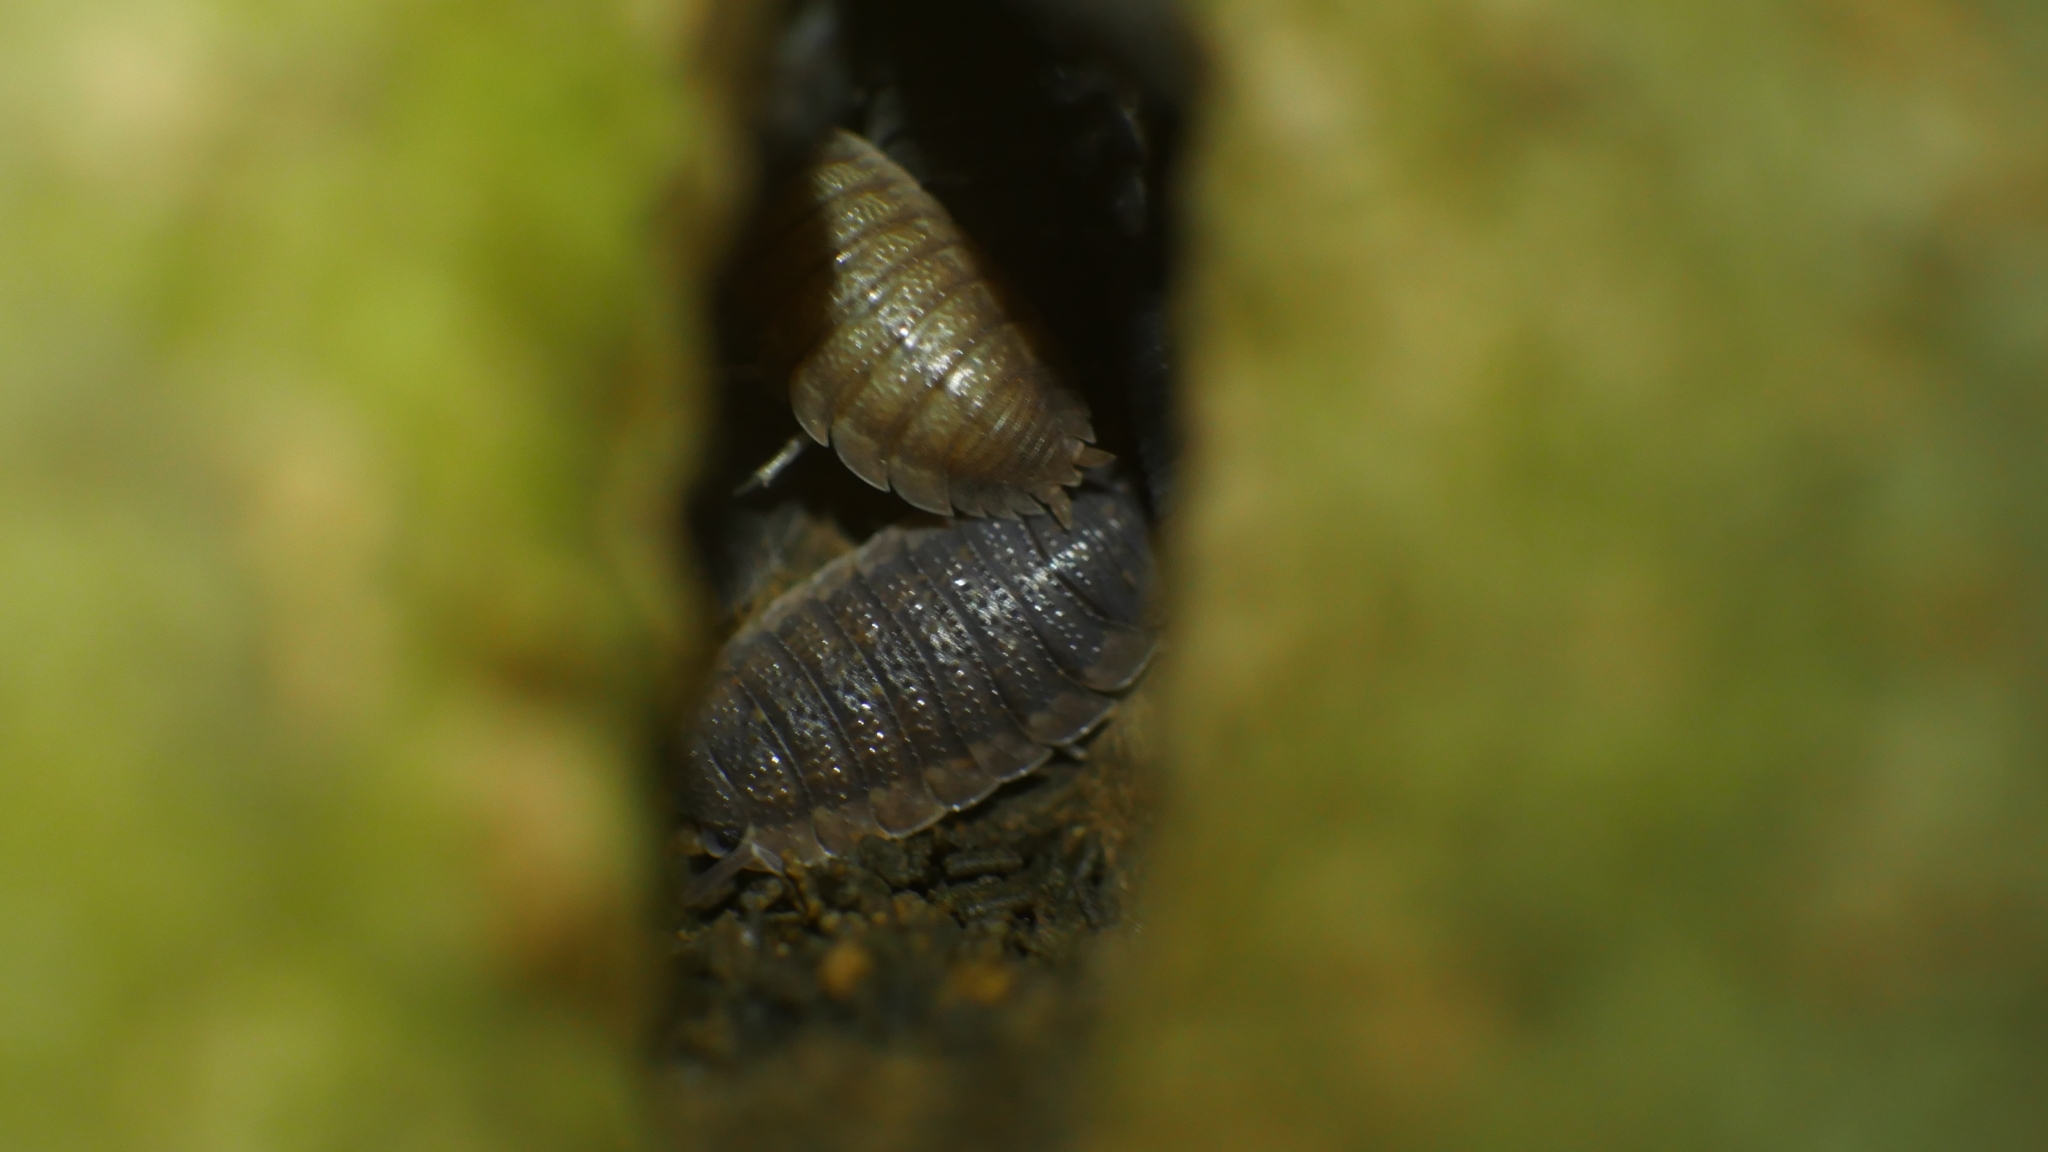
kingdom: Animalia
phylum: Arthropoda
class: Malacostraca
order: Isopoda
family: Porcellionidae
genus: Porcellio
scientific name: Porcellio scaber
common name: Common rough woodlouse
